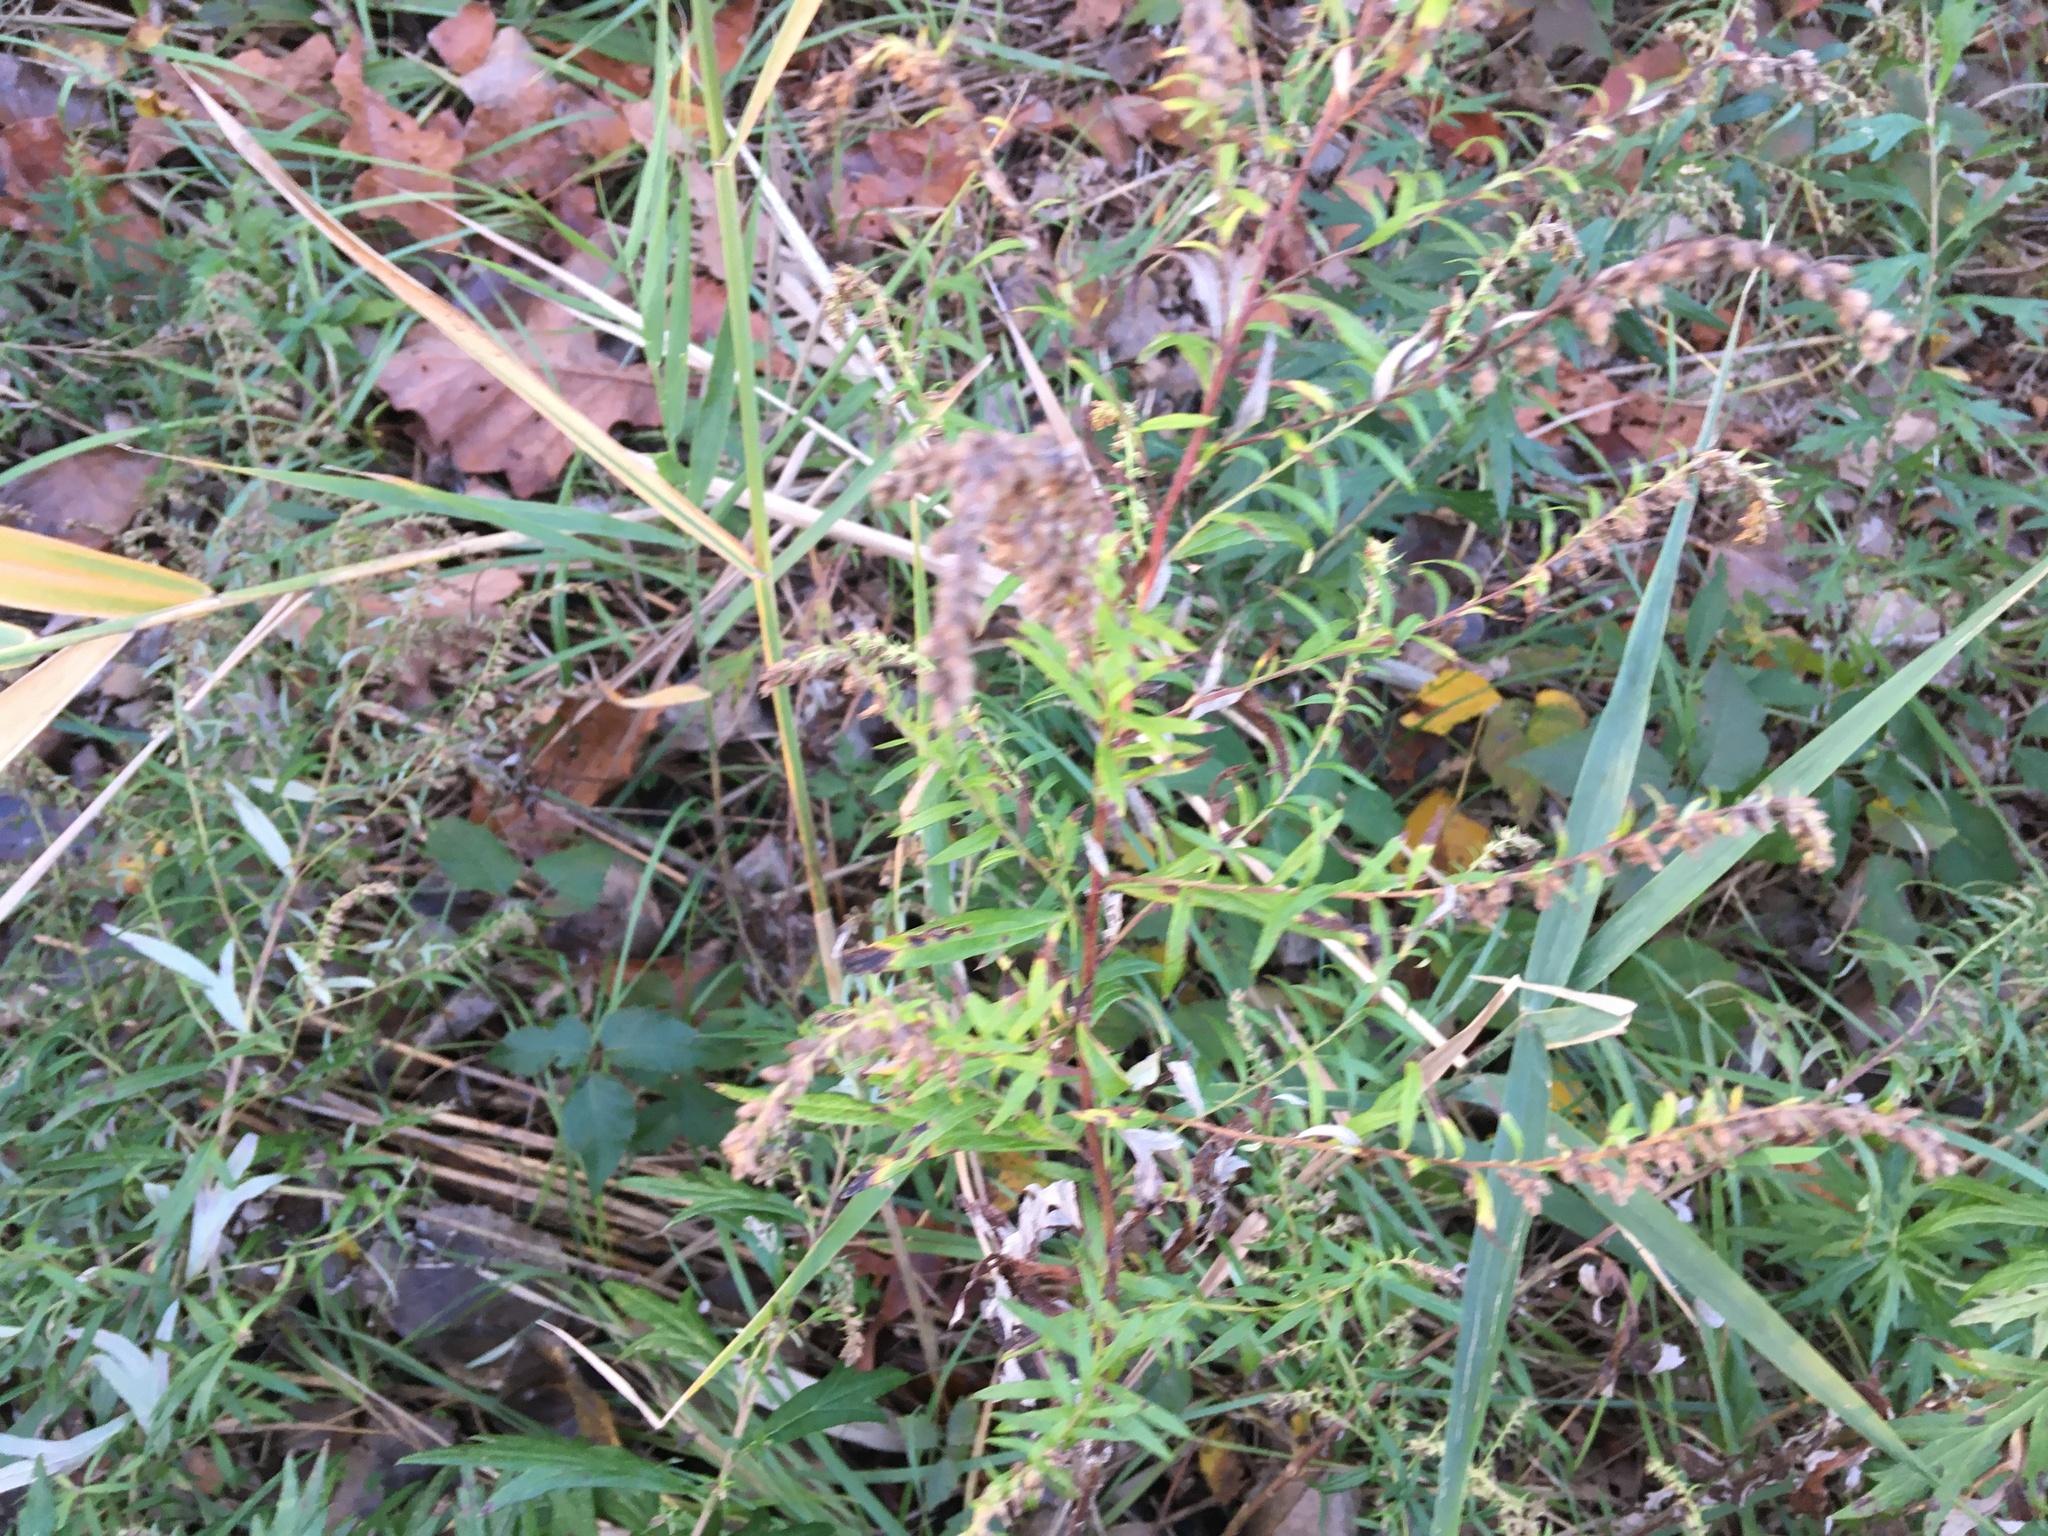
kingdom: Plantae
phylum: Tracheophyta
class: Magnoliopsida
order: Asterales
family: Asteraceae
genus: Artemisia
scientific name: Artemisia vulgaris
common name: Mugwort
